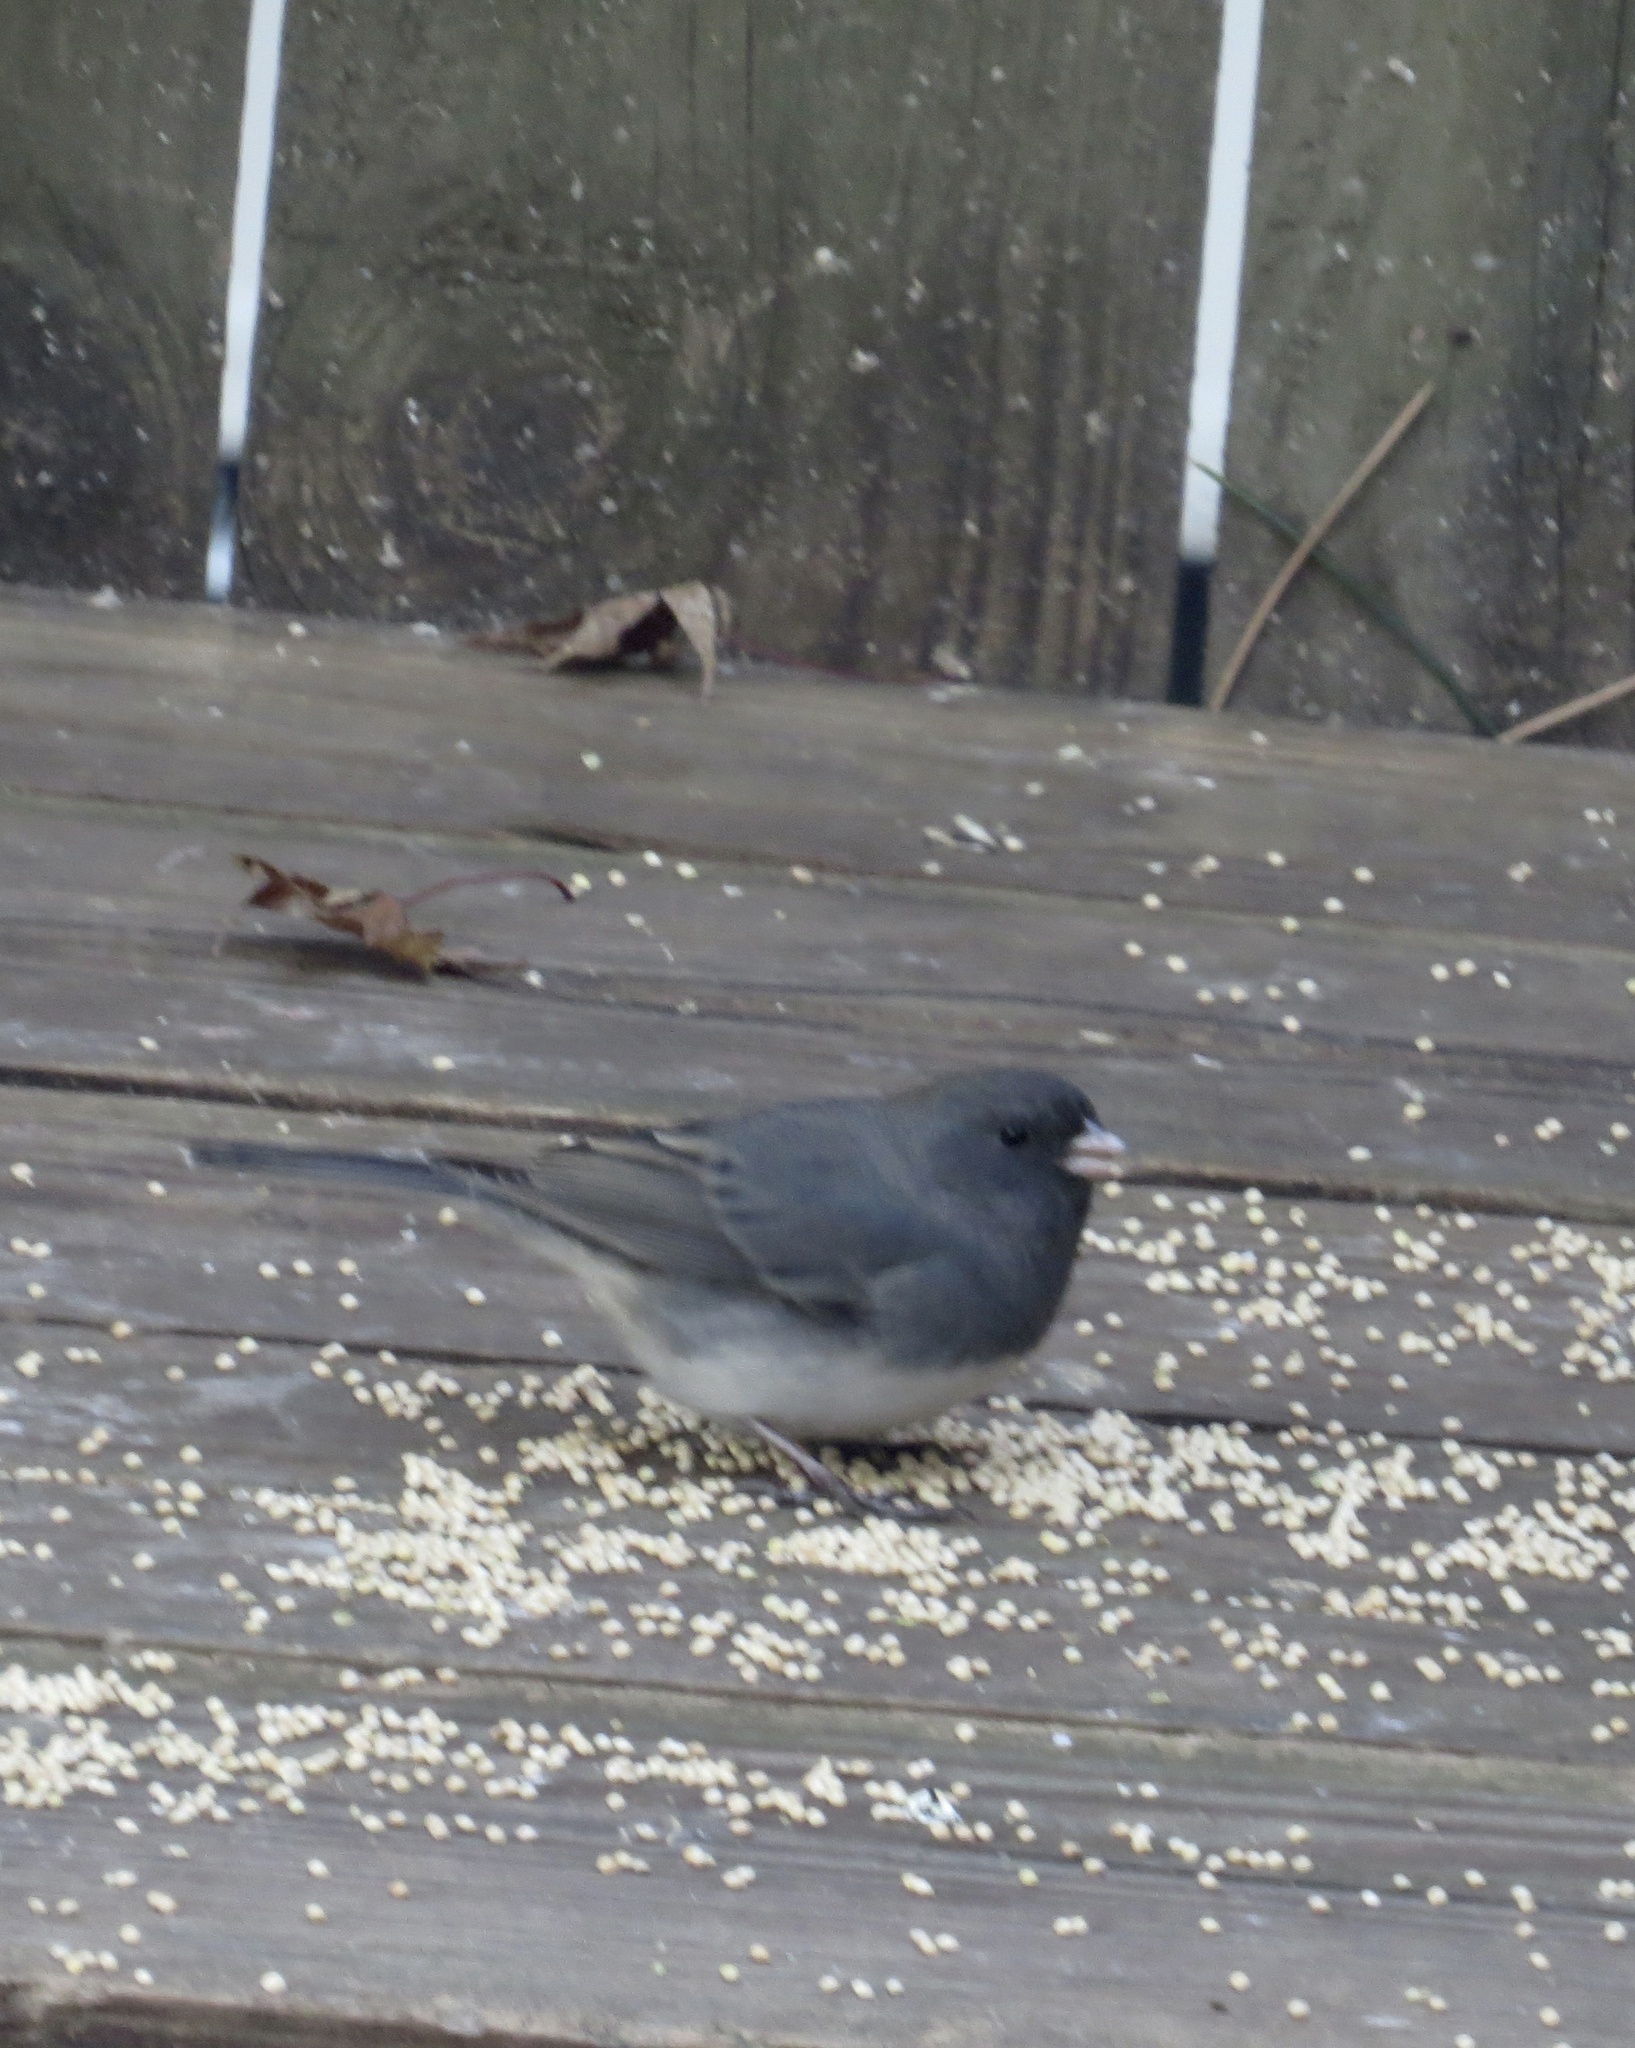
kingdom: Animalia
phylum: Chordata
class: Aves
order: Passeriformes
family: Passerellidae
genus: Junco
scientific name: Junco hyemalis
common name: Dark-eyed junco
